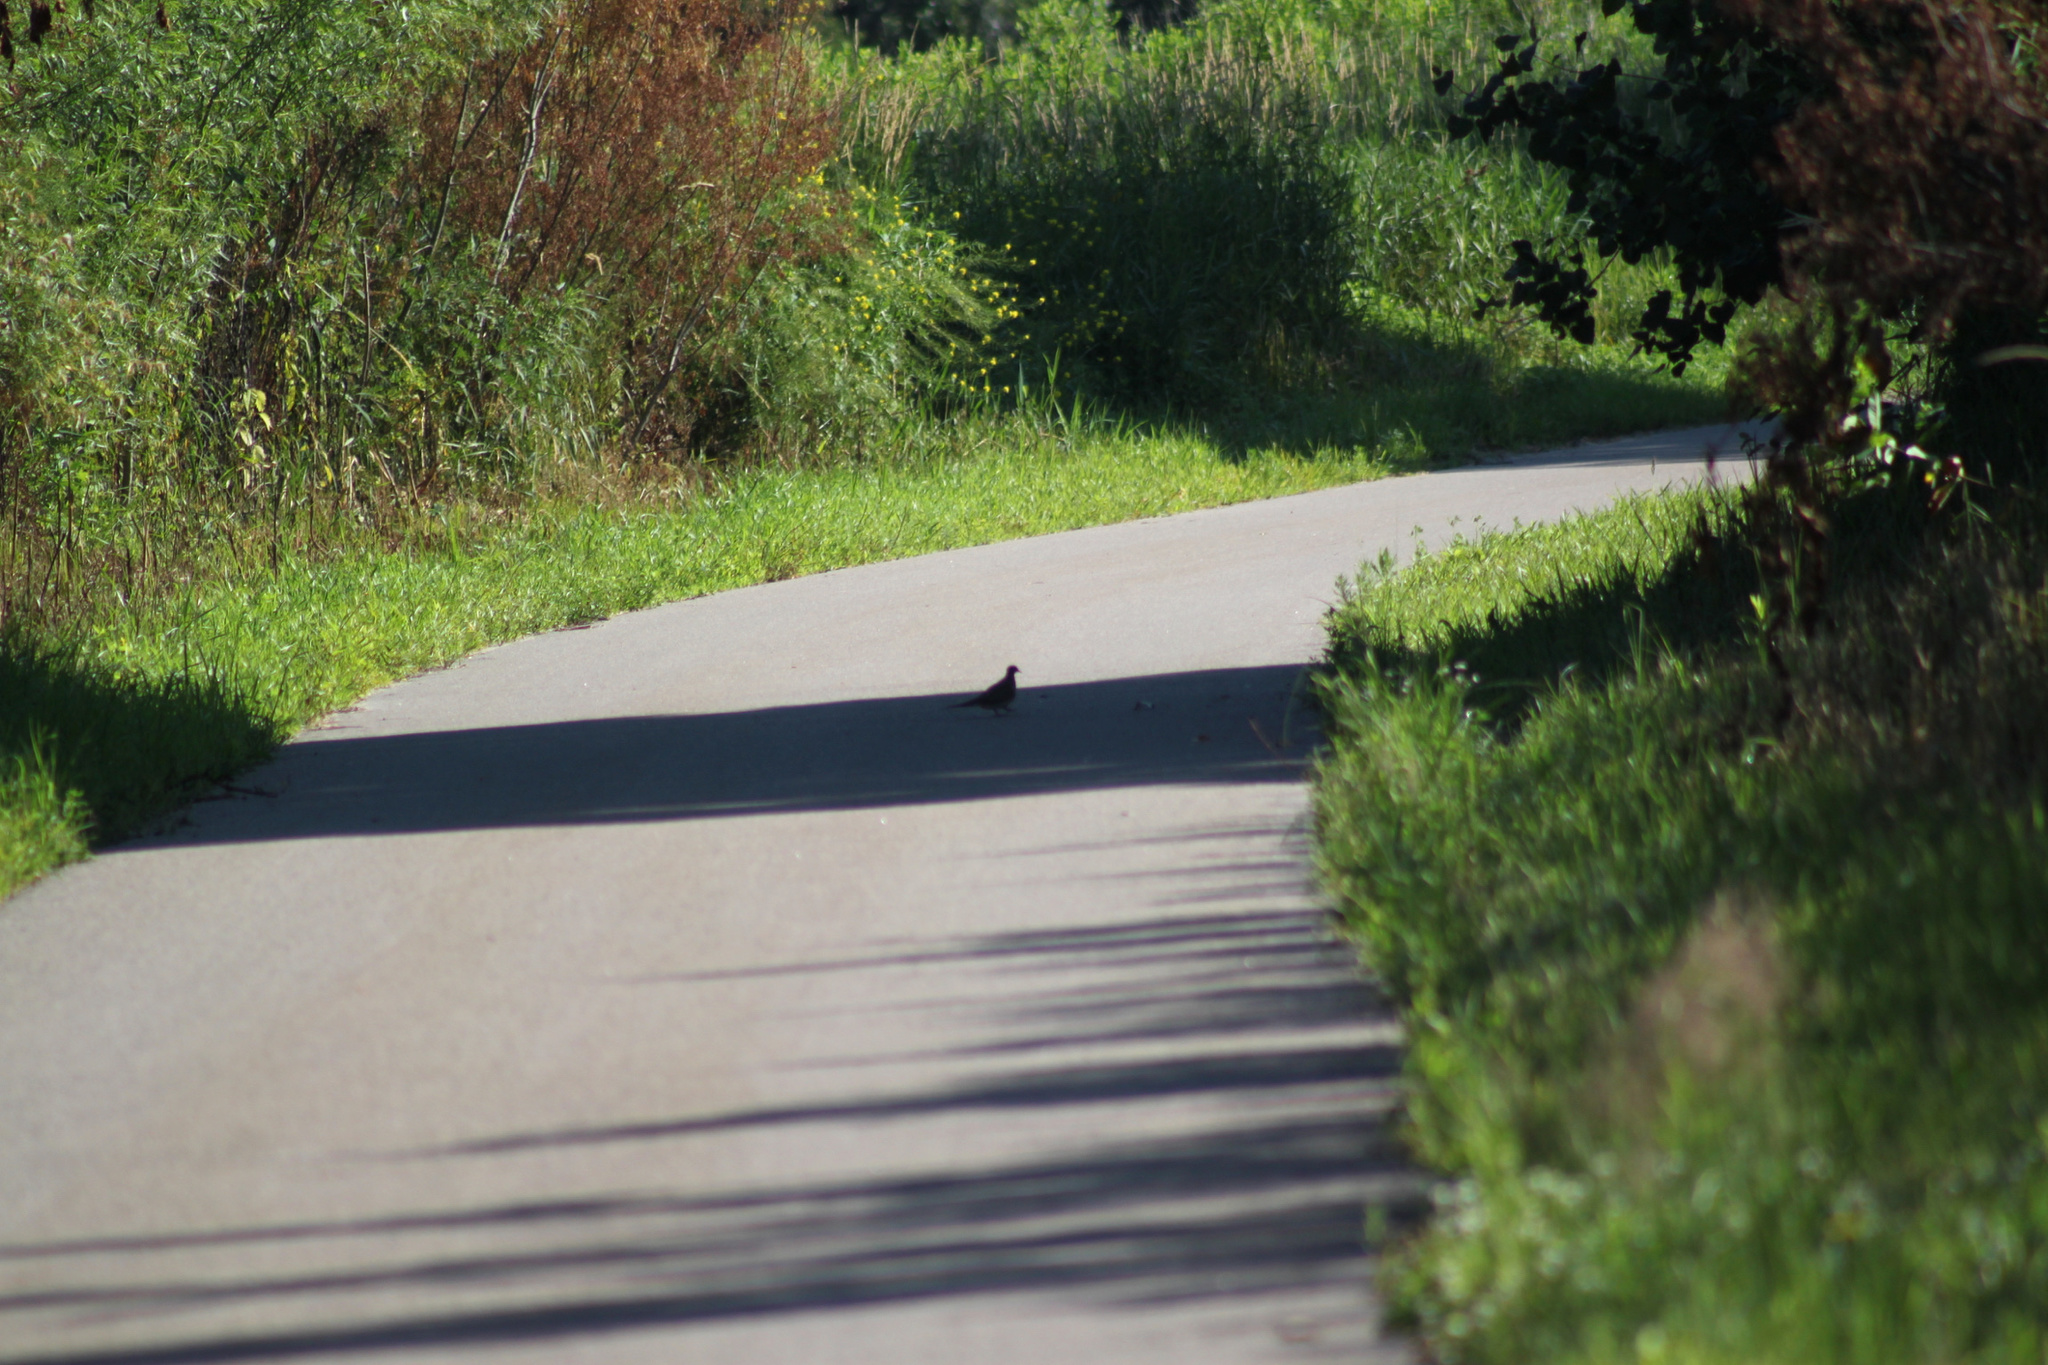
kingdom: Animalia
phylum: Chordata
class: Aves
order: Columbiformes
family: Columbidae
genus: Zenaida
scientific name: Zenaida macroura
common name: Mourning dove
